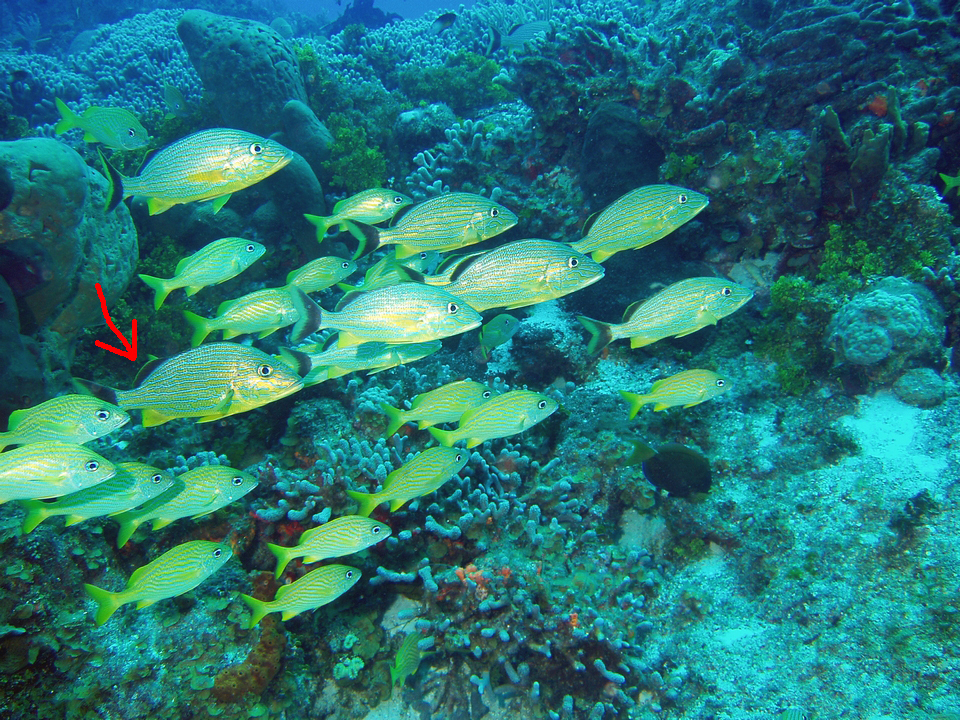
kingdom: Animalia
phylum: Chordata
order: Perciformes
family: Haemulidae
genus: Haemulon
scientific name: Haemulon sciurus
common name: Bluestriped grunt
